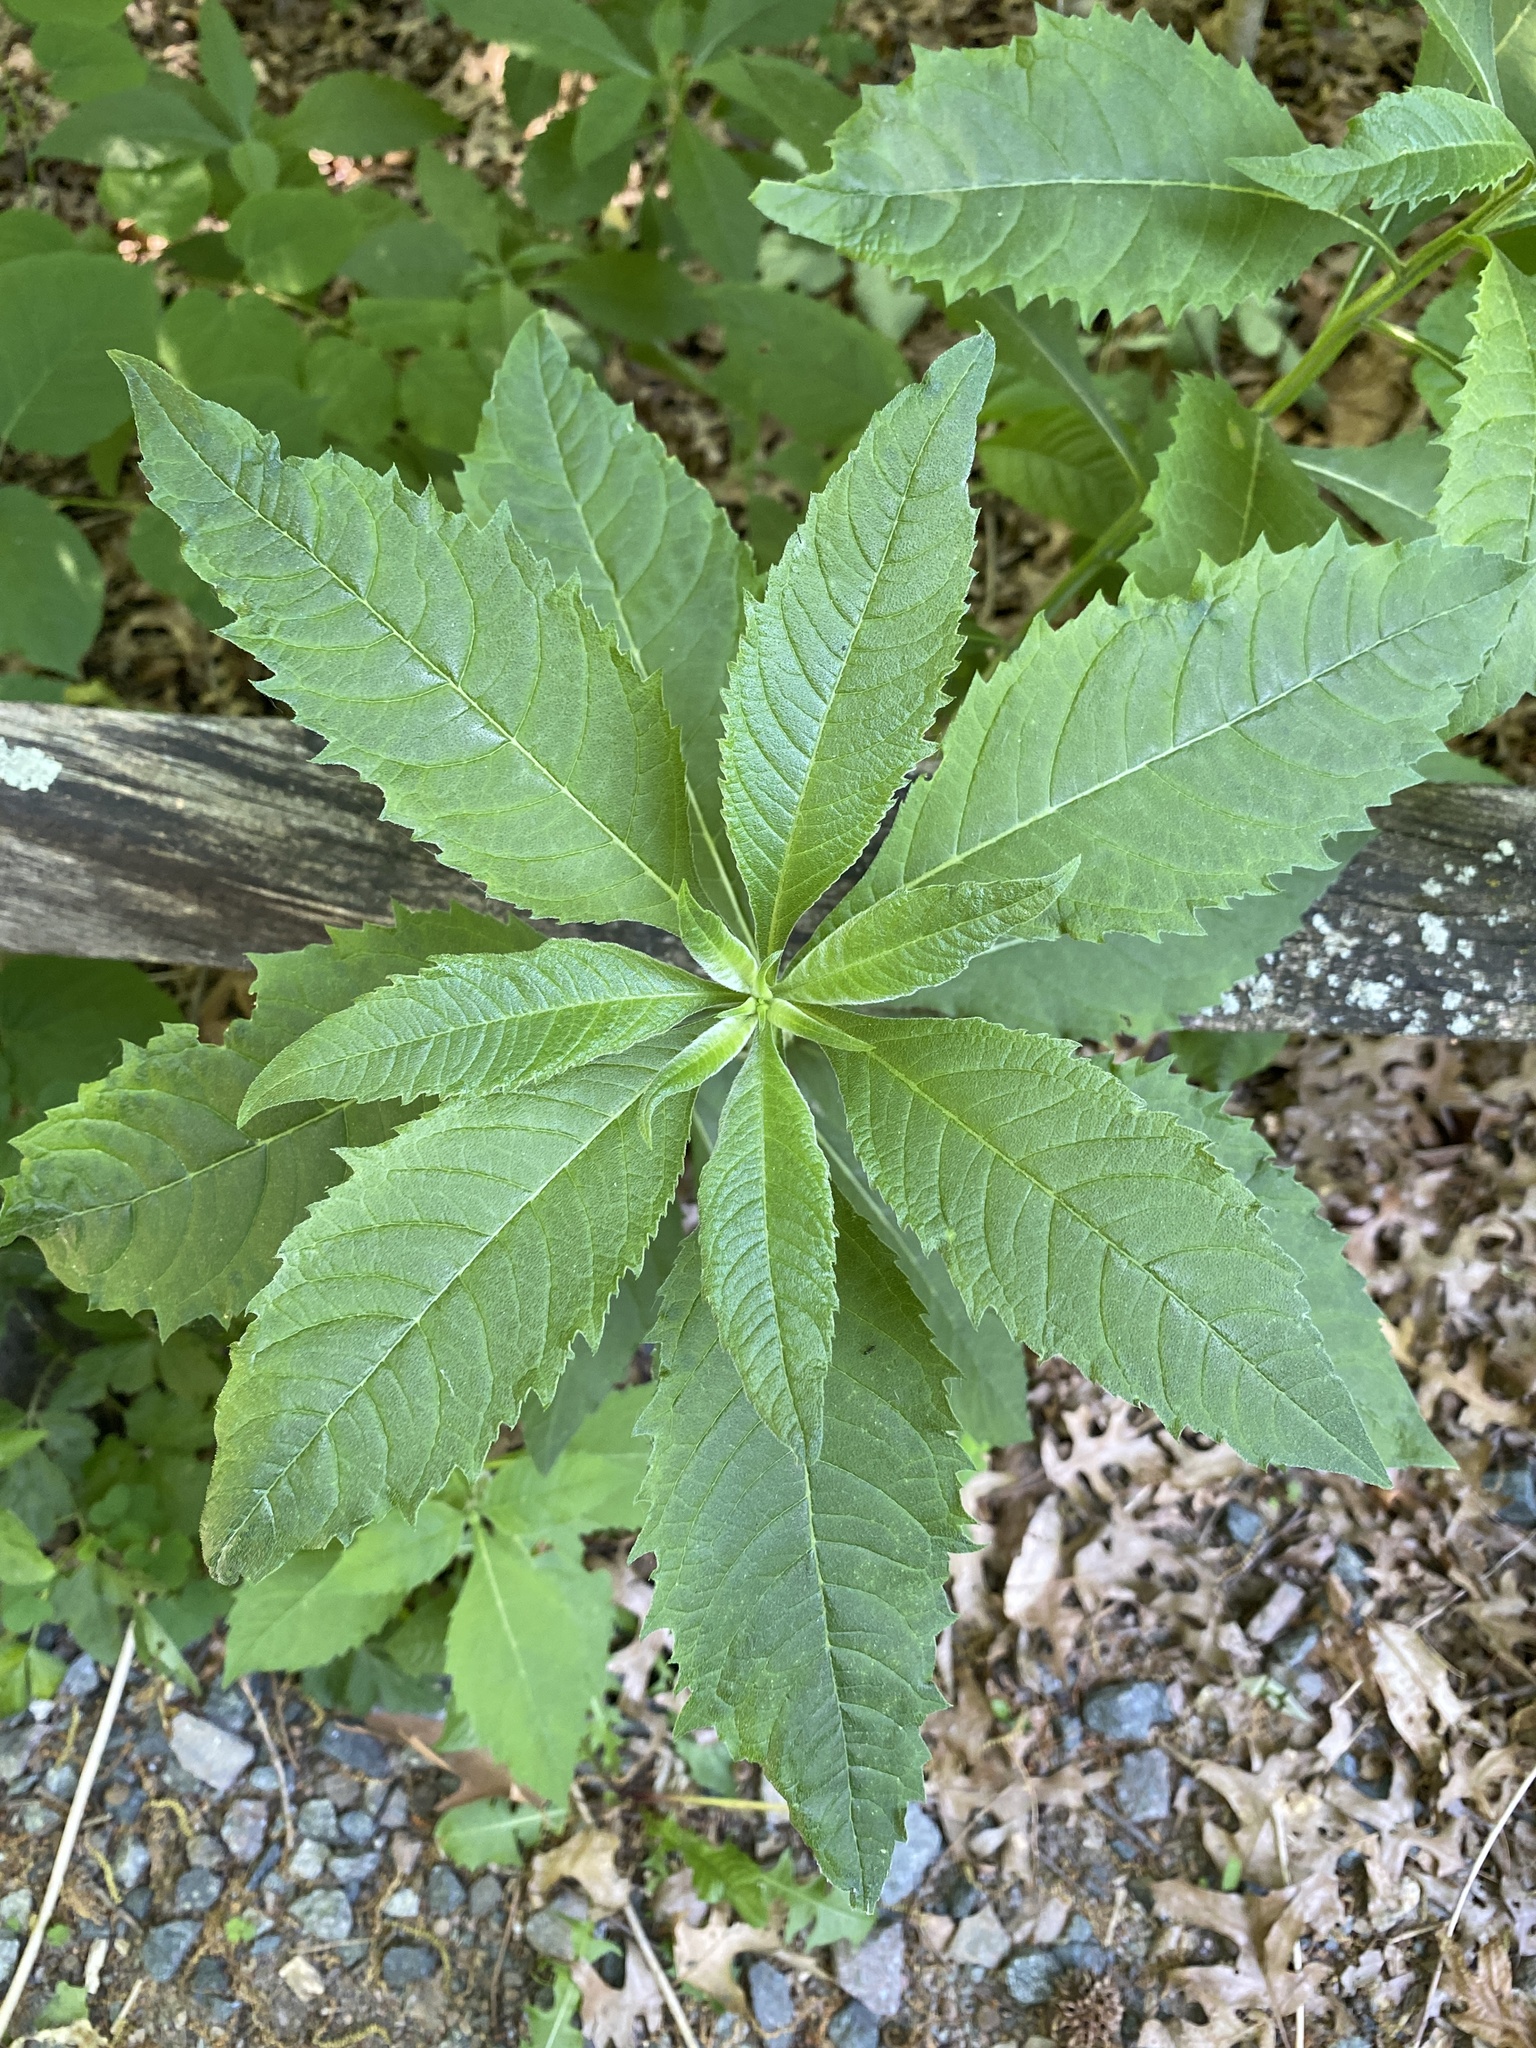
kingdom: Plantae
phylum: Tracheophyta
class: Magnoliopsida
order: Asterales
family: Asteraceae
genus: Verbesina
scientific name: Verbesina alternifolia
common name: Wingstem
